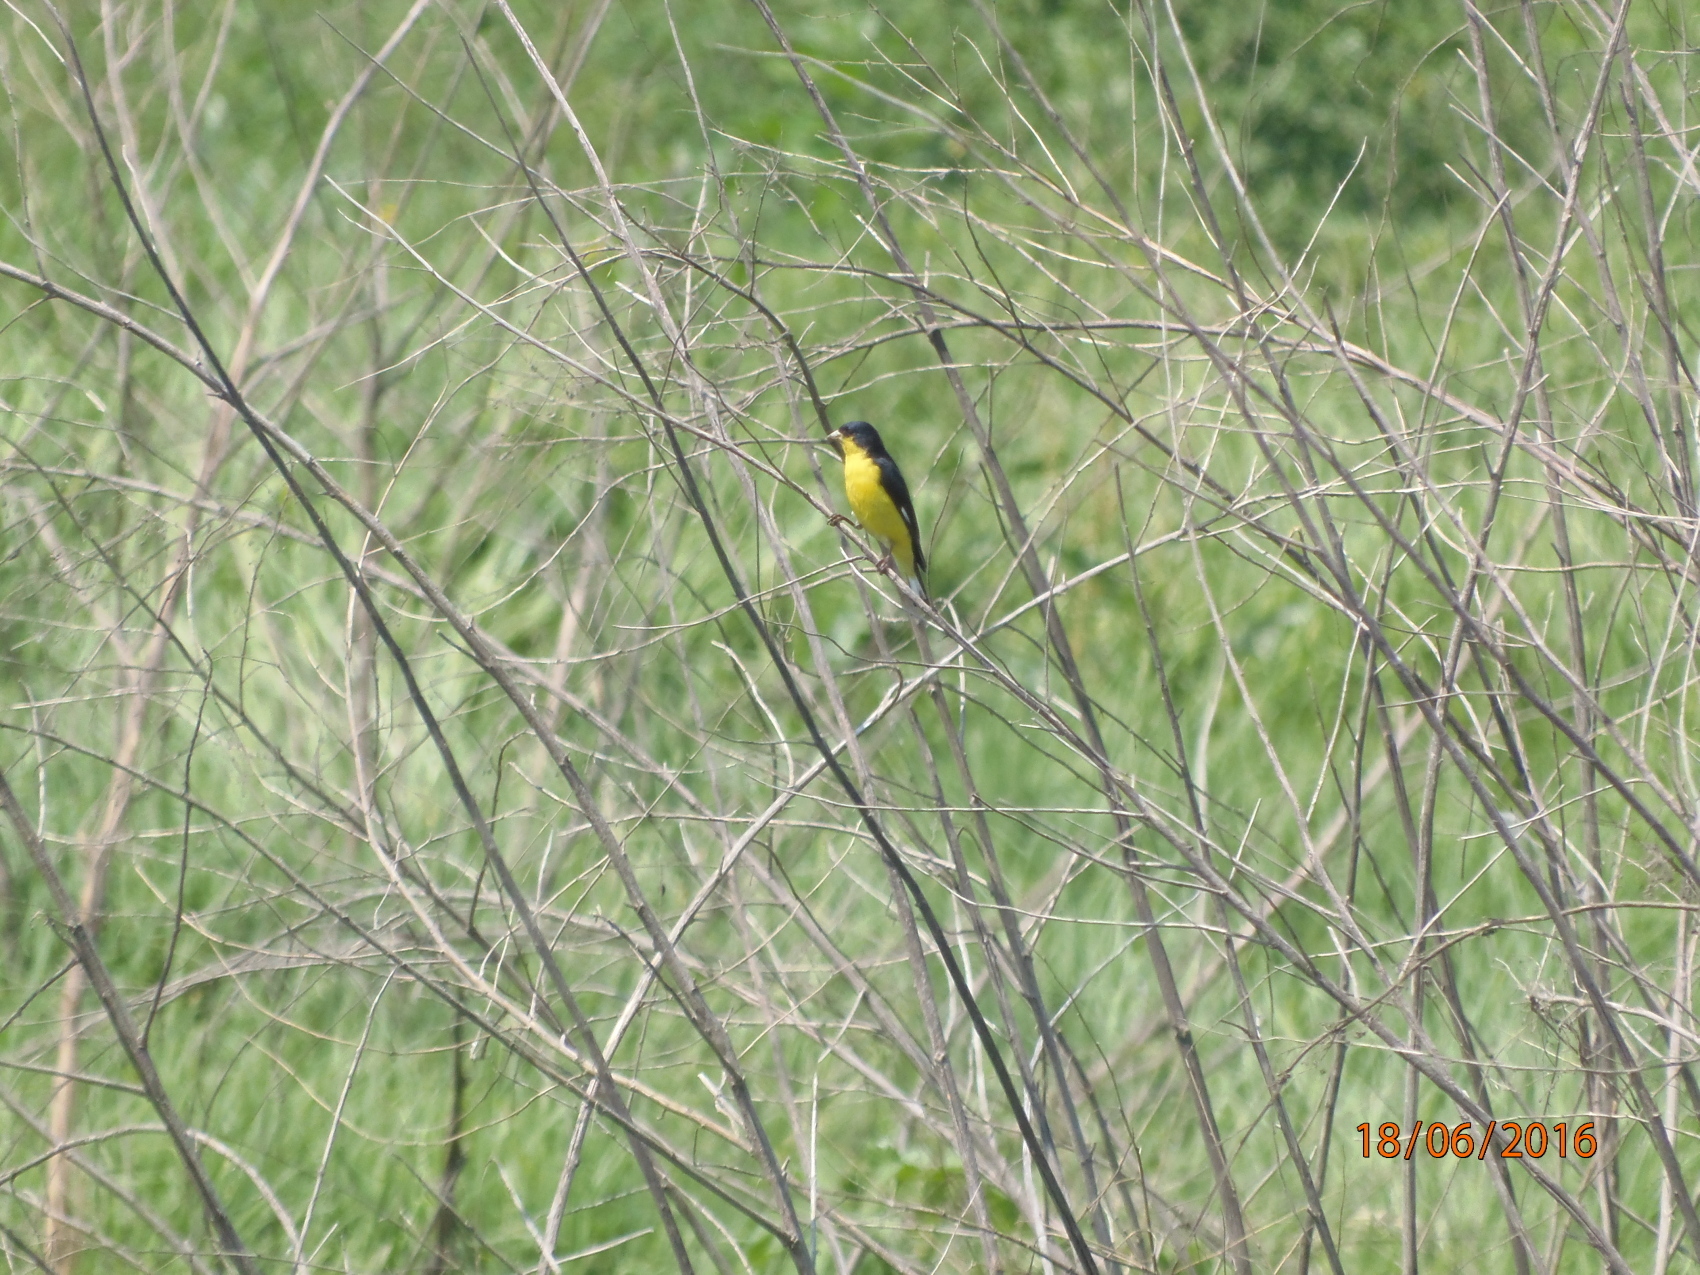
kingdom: Animalia
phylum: Chordata
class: Aves
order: Passeriformes
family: Fringillidae
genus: Spinus
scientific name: Spinus psaltria
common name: Lesser goldfinch
